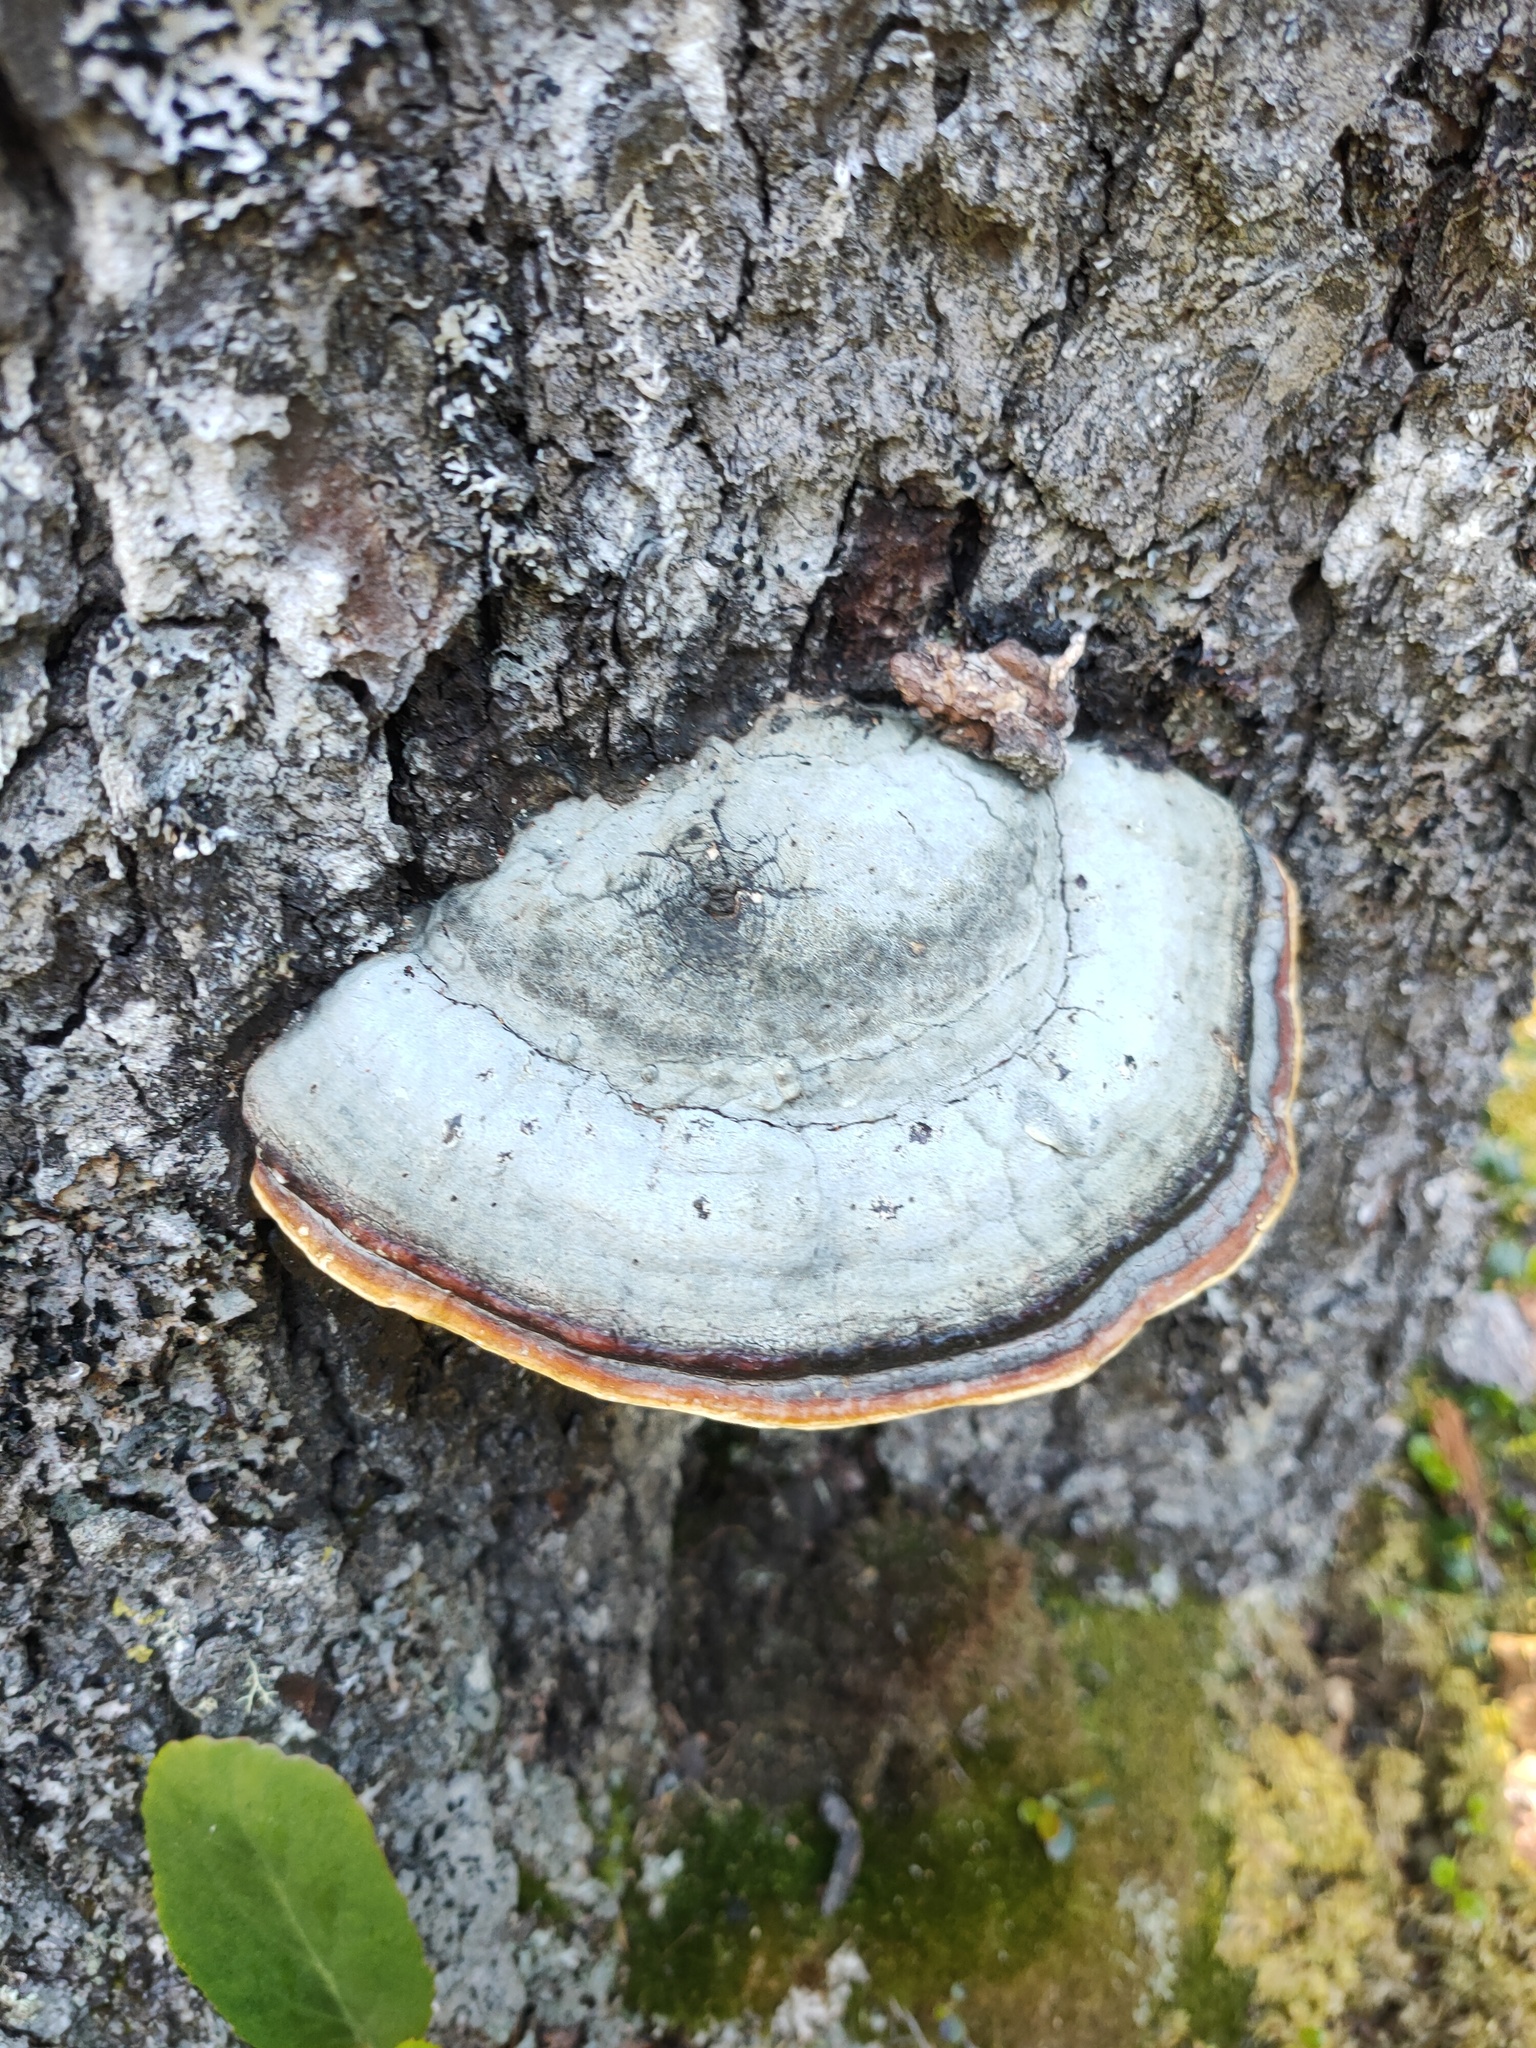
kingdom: Fungi
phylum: Basidiomycota
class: Agaricomycetes
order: Polyporales
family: Fomitopsidaceae
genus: Fomitopsis
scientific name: Fomitopsis pinicola
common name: Red-belted bracket
